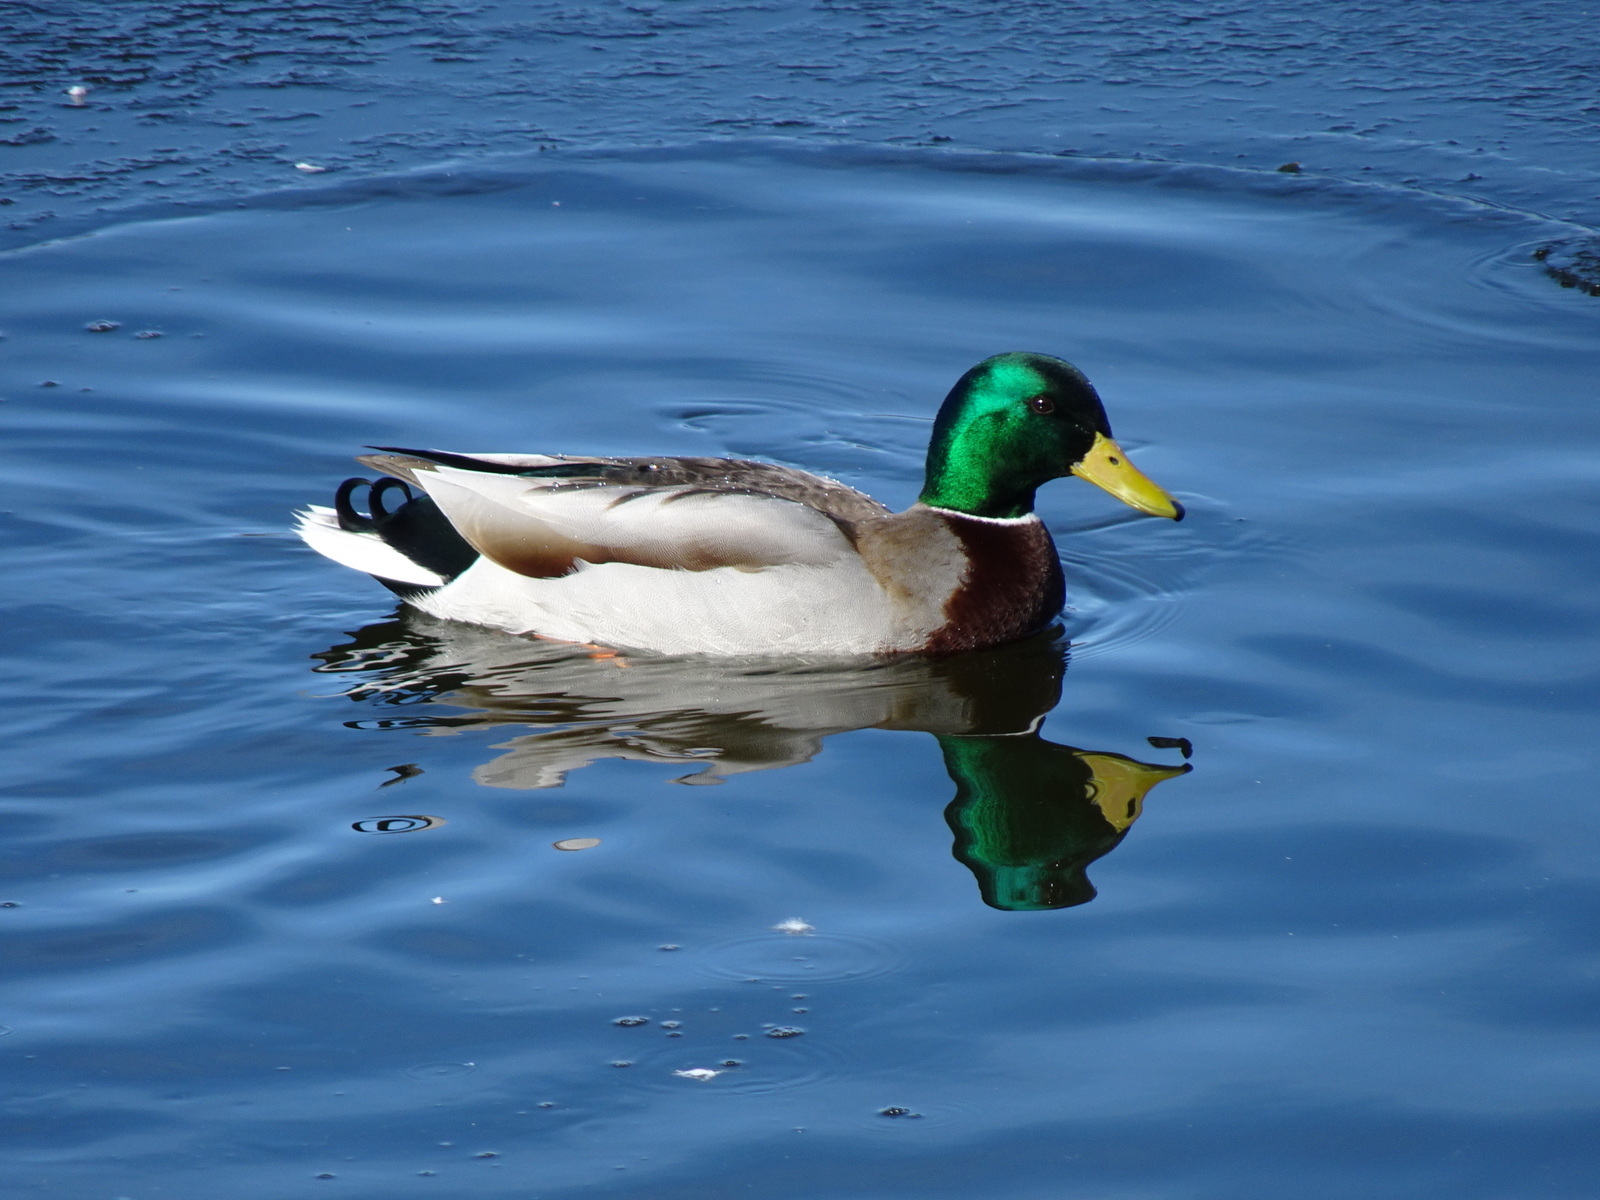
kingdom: Animalia
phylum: Chordata
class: Aves
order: Anseriformes
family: Anatidae
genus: Anas
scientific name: Anas platyrhynchos
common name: Mallard
